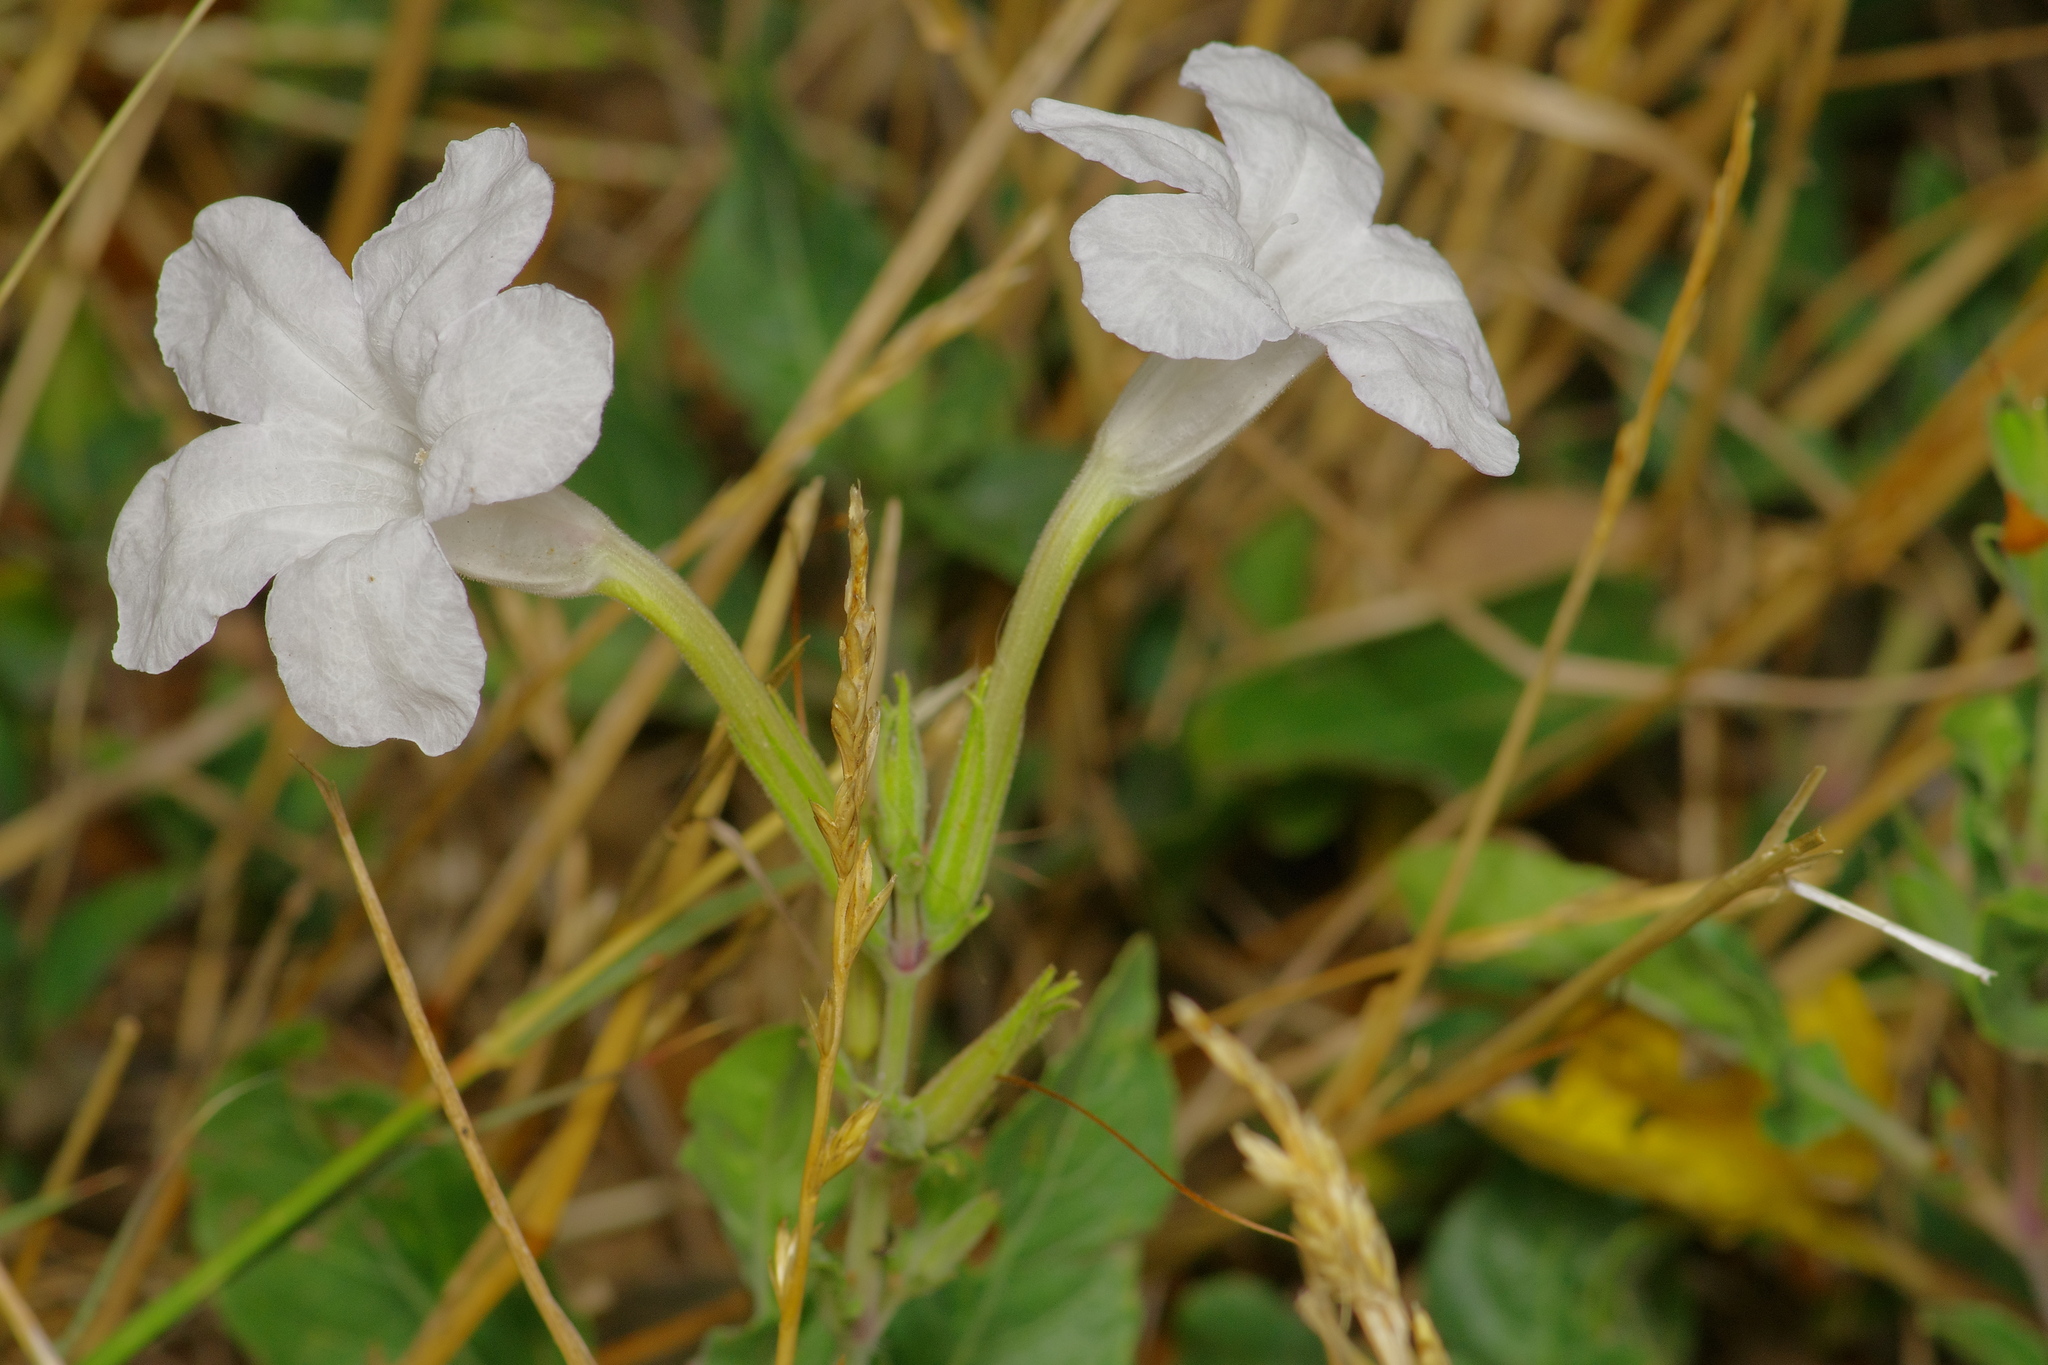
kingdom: Plantae
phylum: Tracheophyta
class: Magnoliopsida
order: Lamiales
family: Acanthaceae
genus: Ruellia
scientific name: Ruellia metziae
